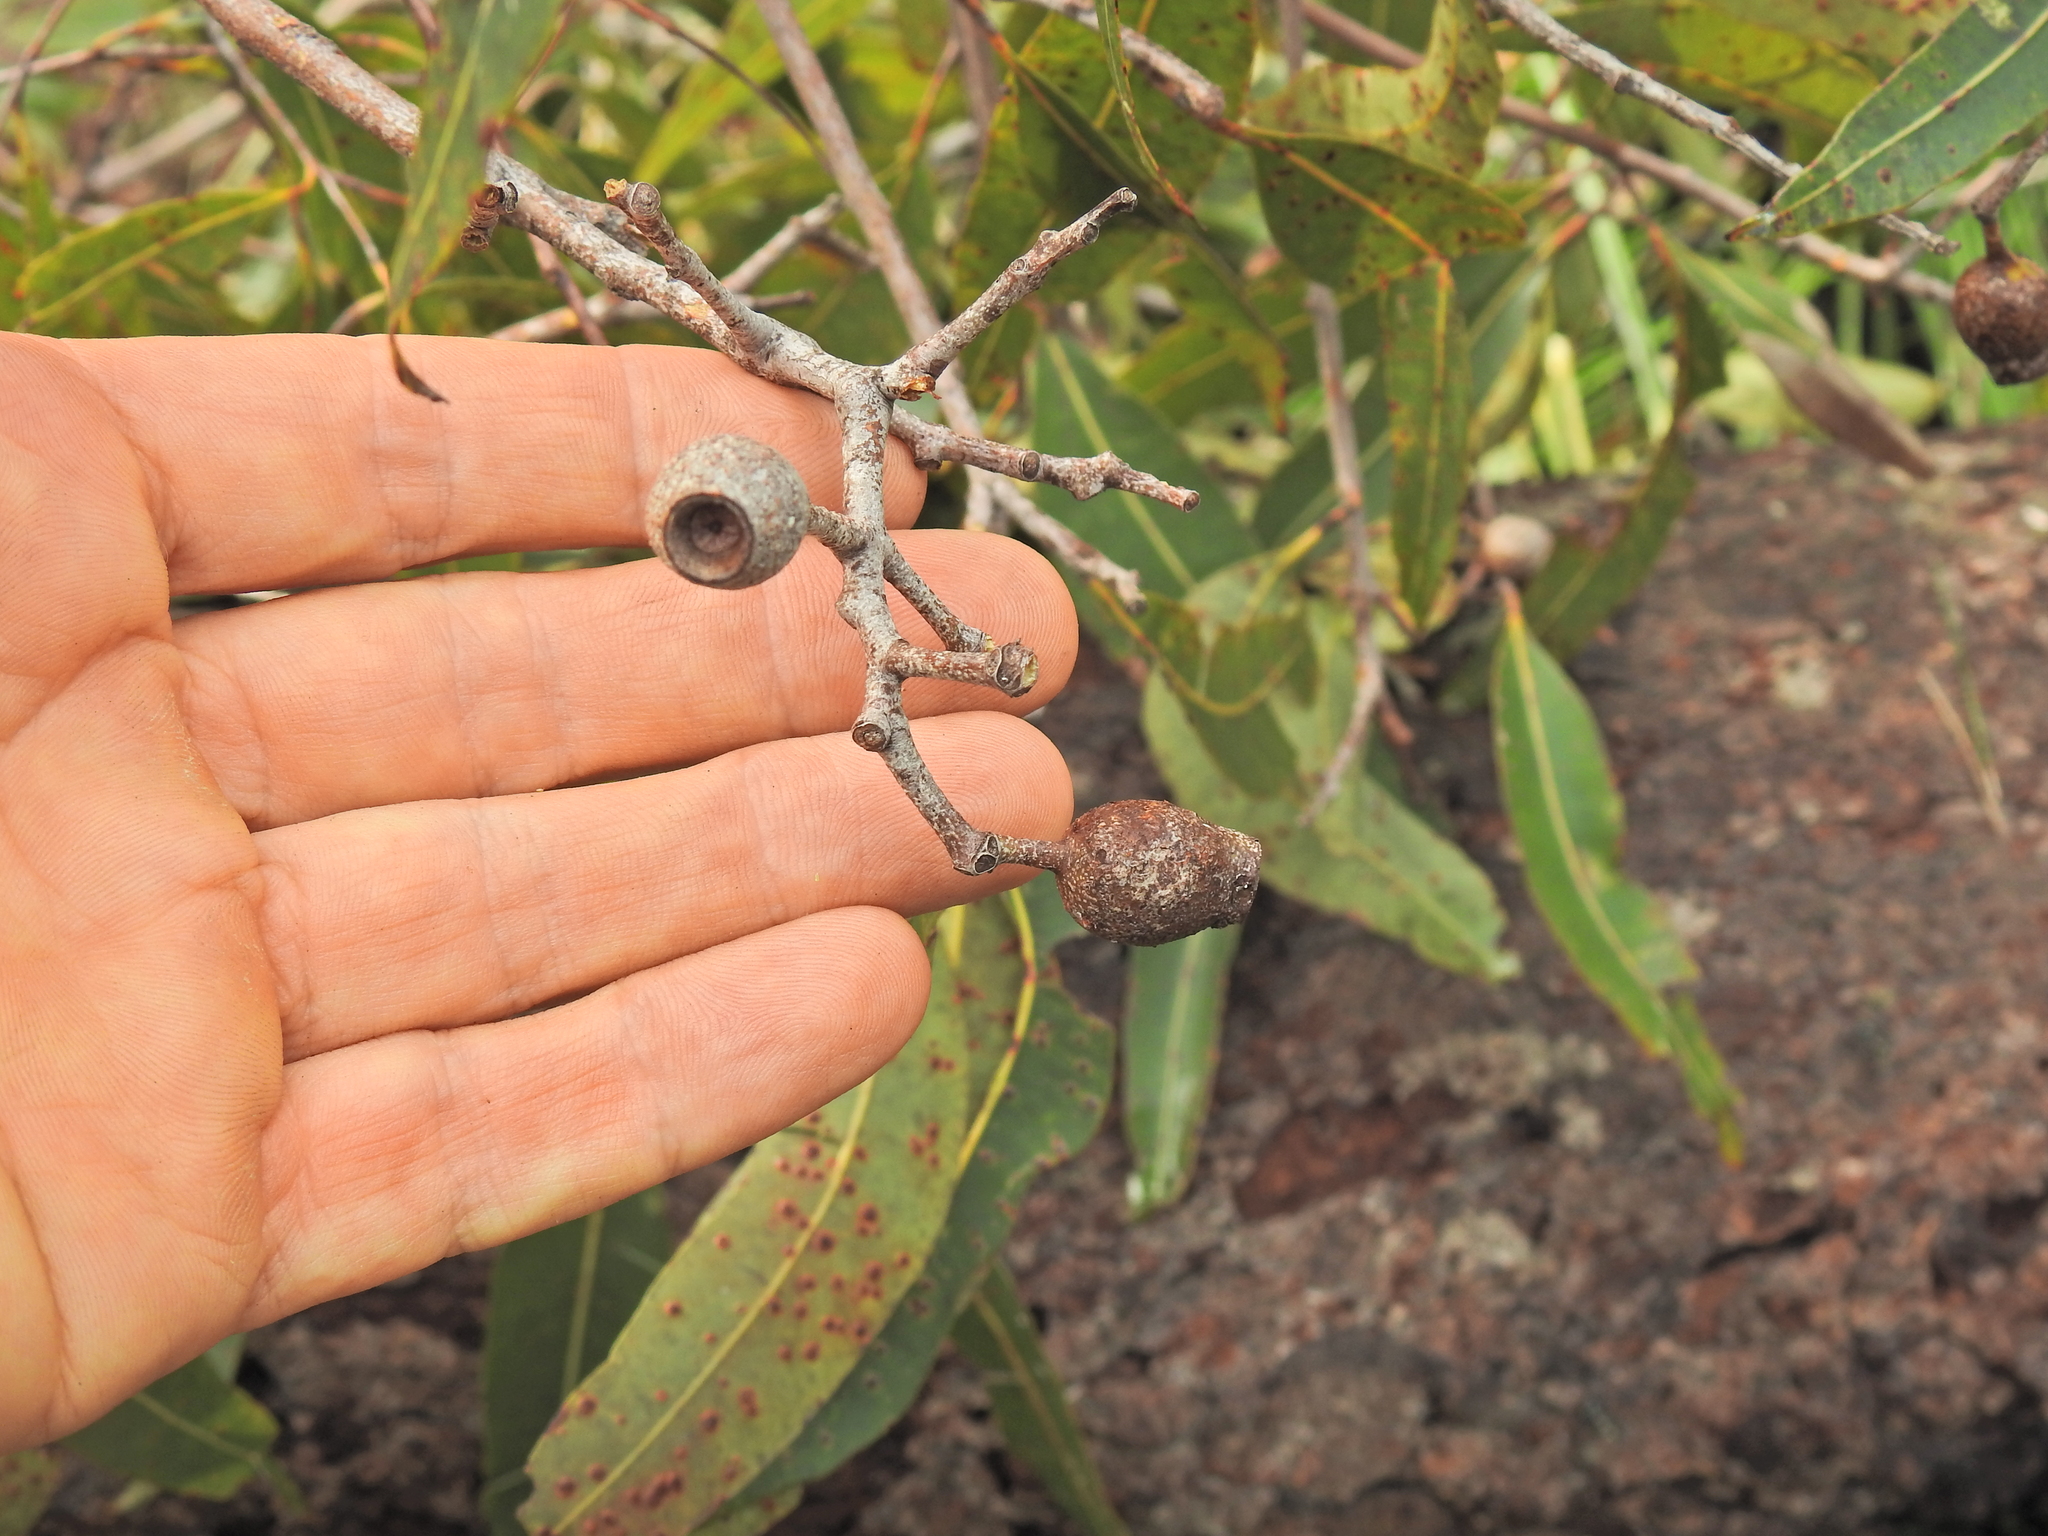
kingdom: Plantae
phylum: Tracheophyta
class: Magnoliopsida
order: Myrtales
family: Myrtaceae
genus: Corymbia
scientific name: Corymbia intermedia
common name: Pink-bloodwood
